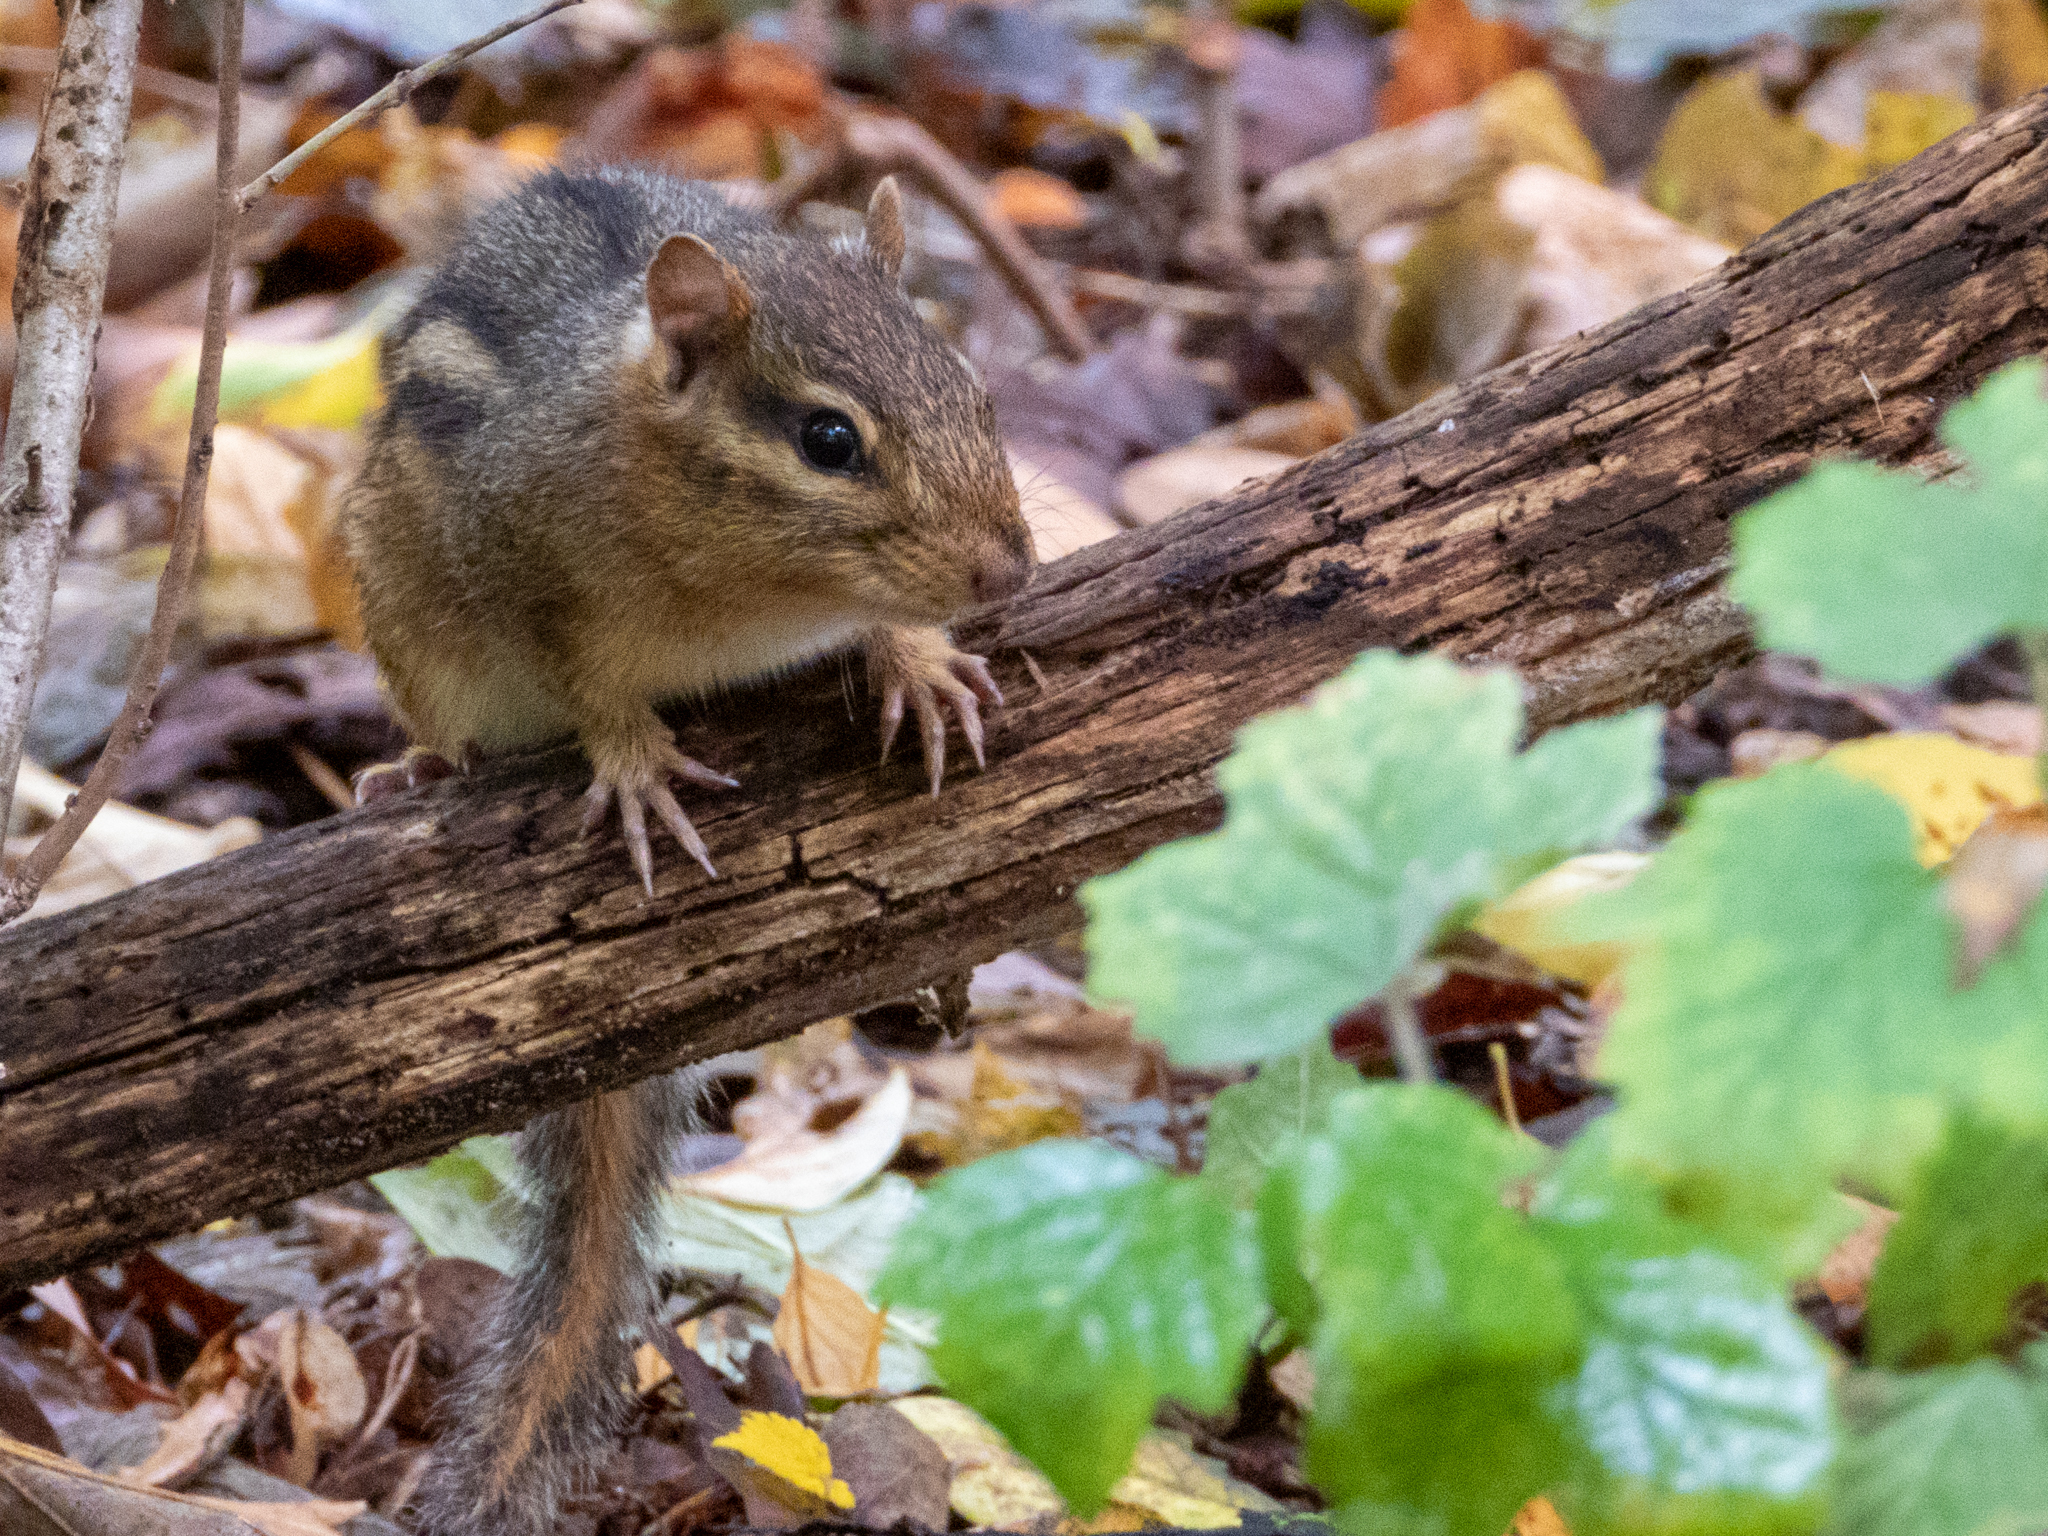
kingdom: Animalia
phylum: Chordata
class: Mammalia
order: Rodentia
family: Sciuridae
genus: Tamias
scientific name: Tamias striatus
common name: Eastern chipmunk
